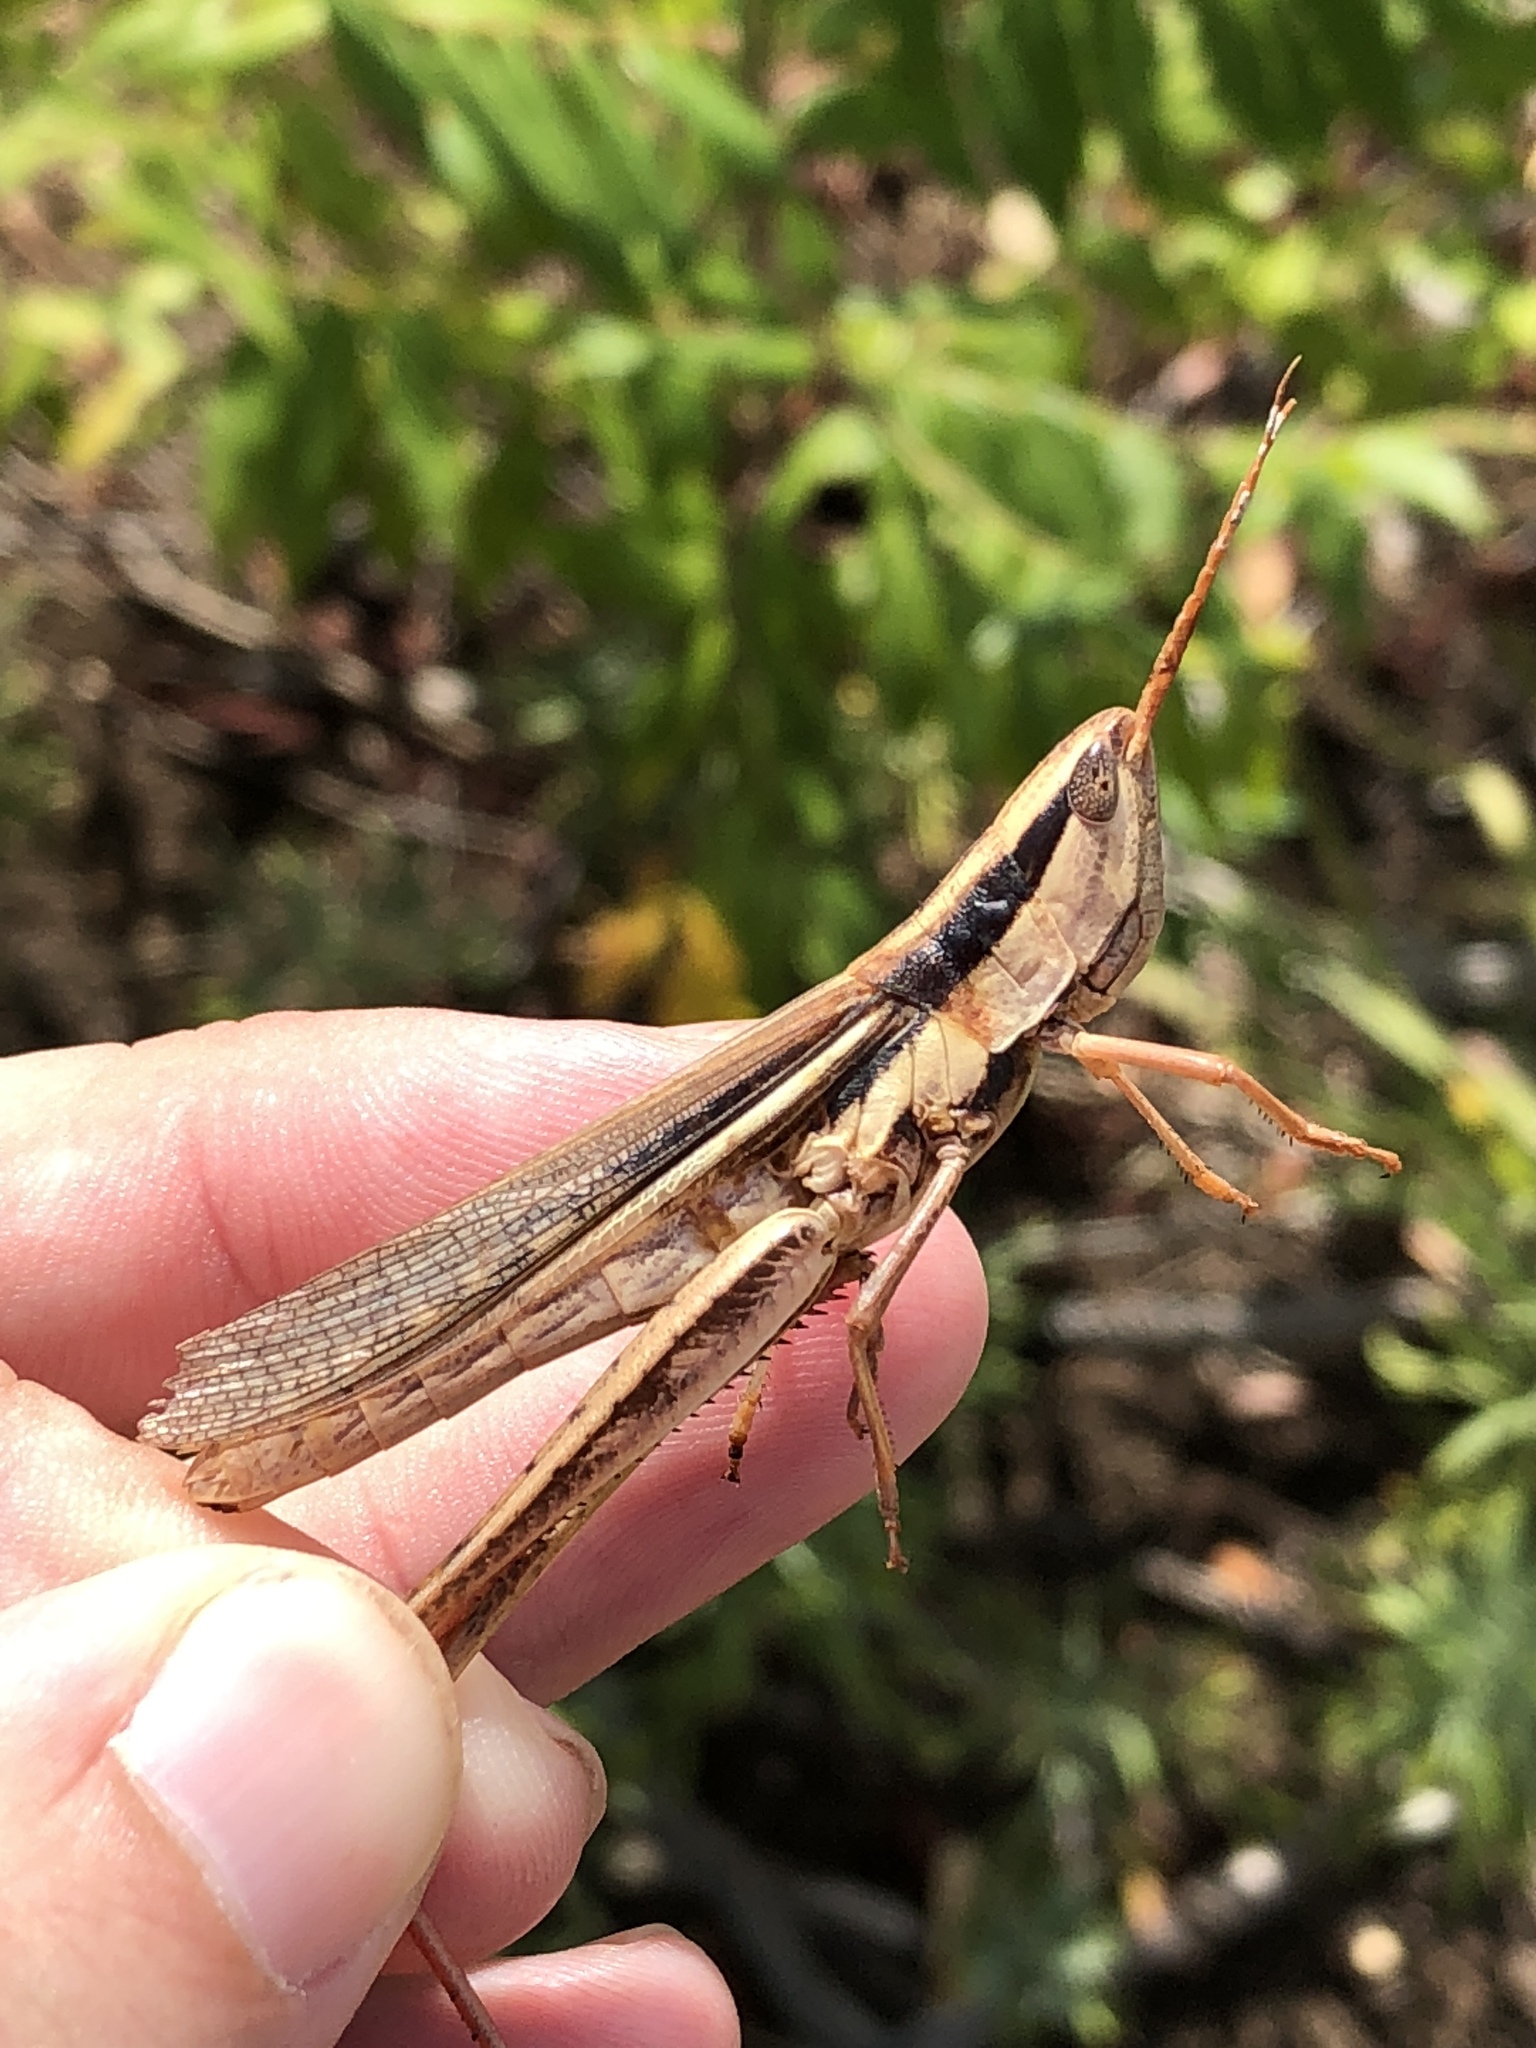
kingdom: Animalia
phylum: Arthropoda
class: Insecta
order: Orthoptera
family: Acrididae
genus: Mermiria
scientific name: Mermiria bivittata
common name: Two-striped mermiria grasshopper
